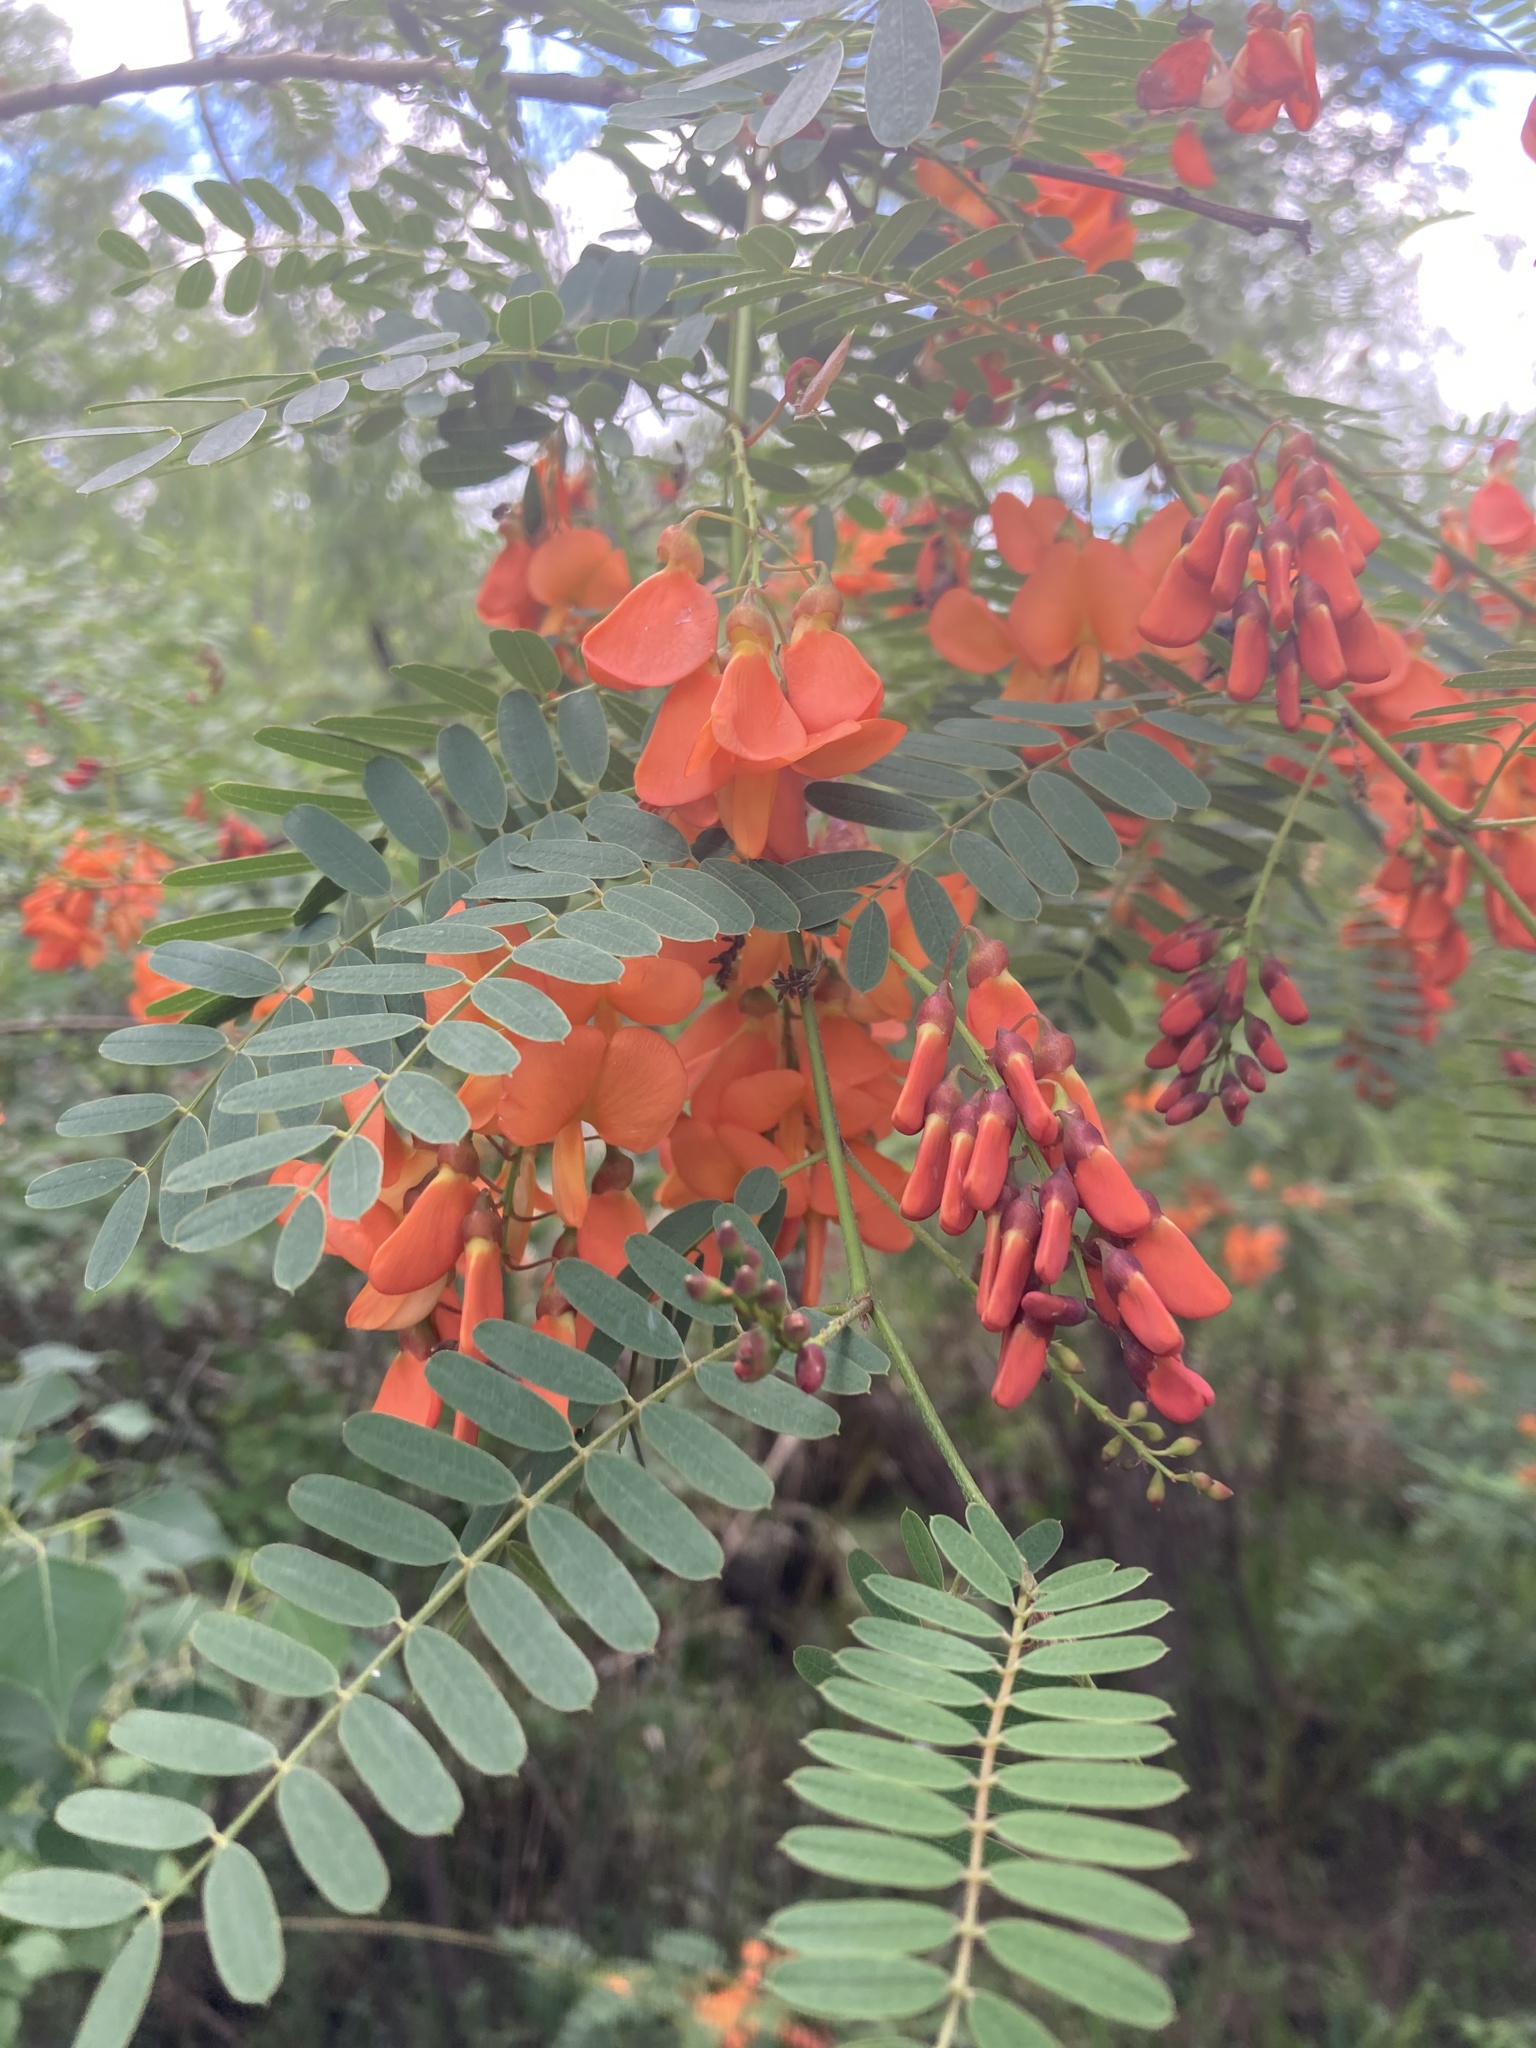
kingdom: Plantae
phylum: Tracheophyta
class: Magnoliopsida
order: Fabales
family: Fabaceae
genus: Sesbania
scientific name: Sesbania punicea
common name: Rattlebox
